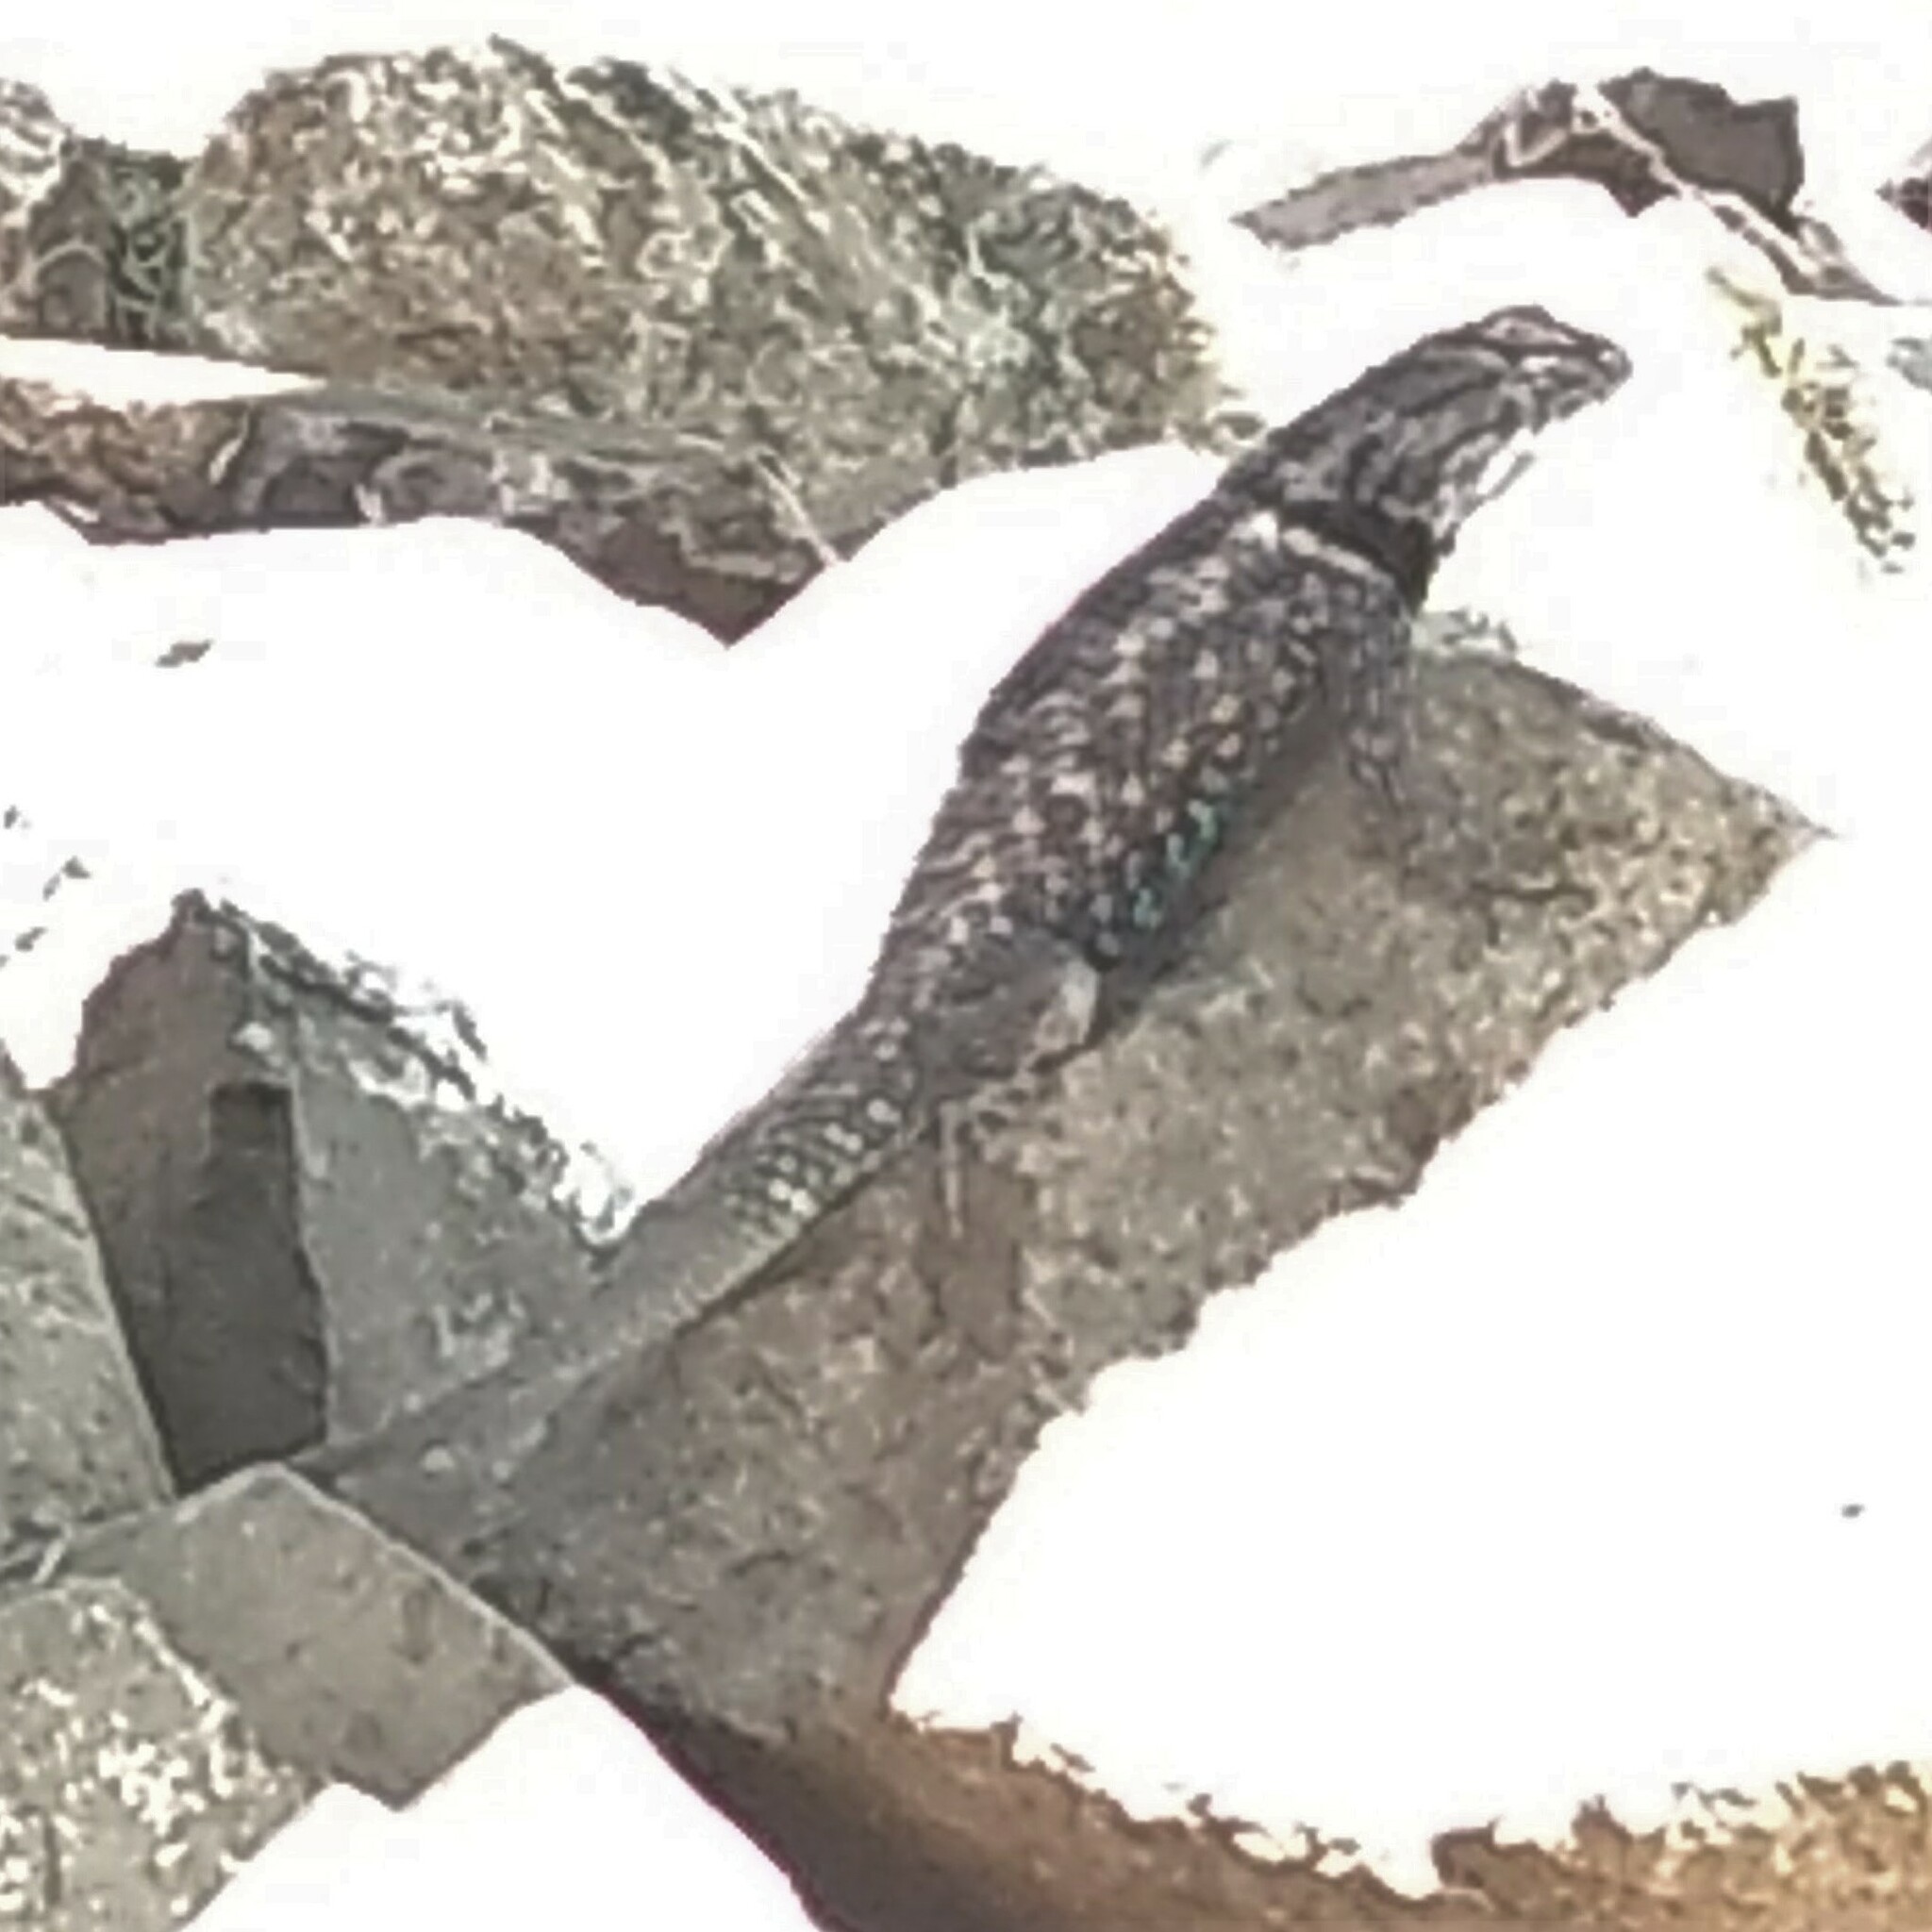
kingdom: Animalia
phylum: Chordata
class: Squamata
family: Phrynosomatidae
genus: Sceloporus
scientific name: Sceloporus magister
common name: Desert spiny lizard
